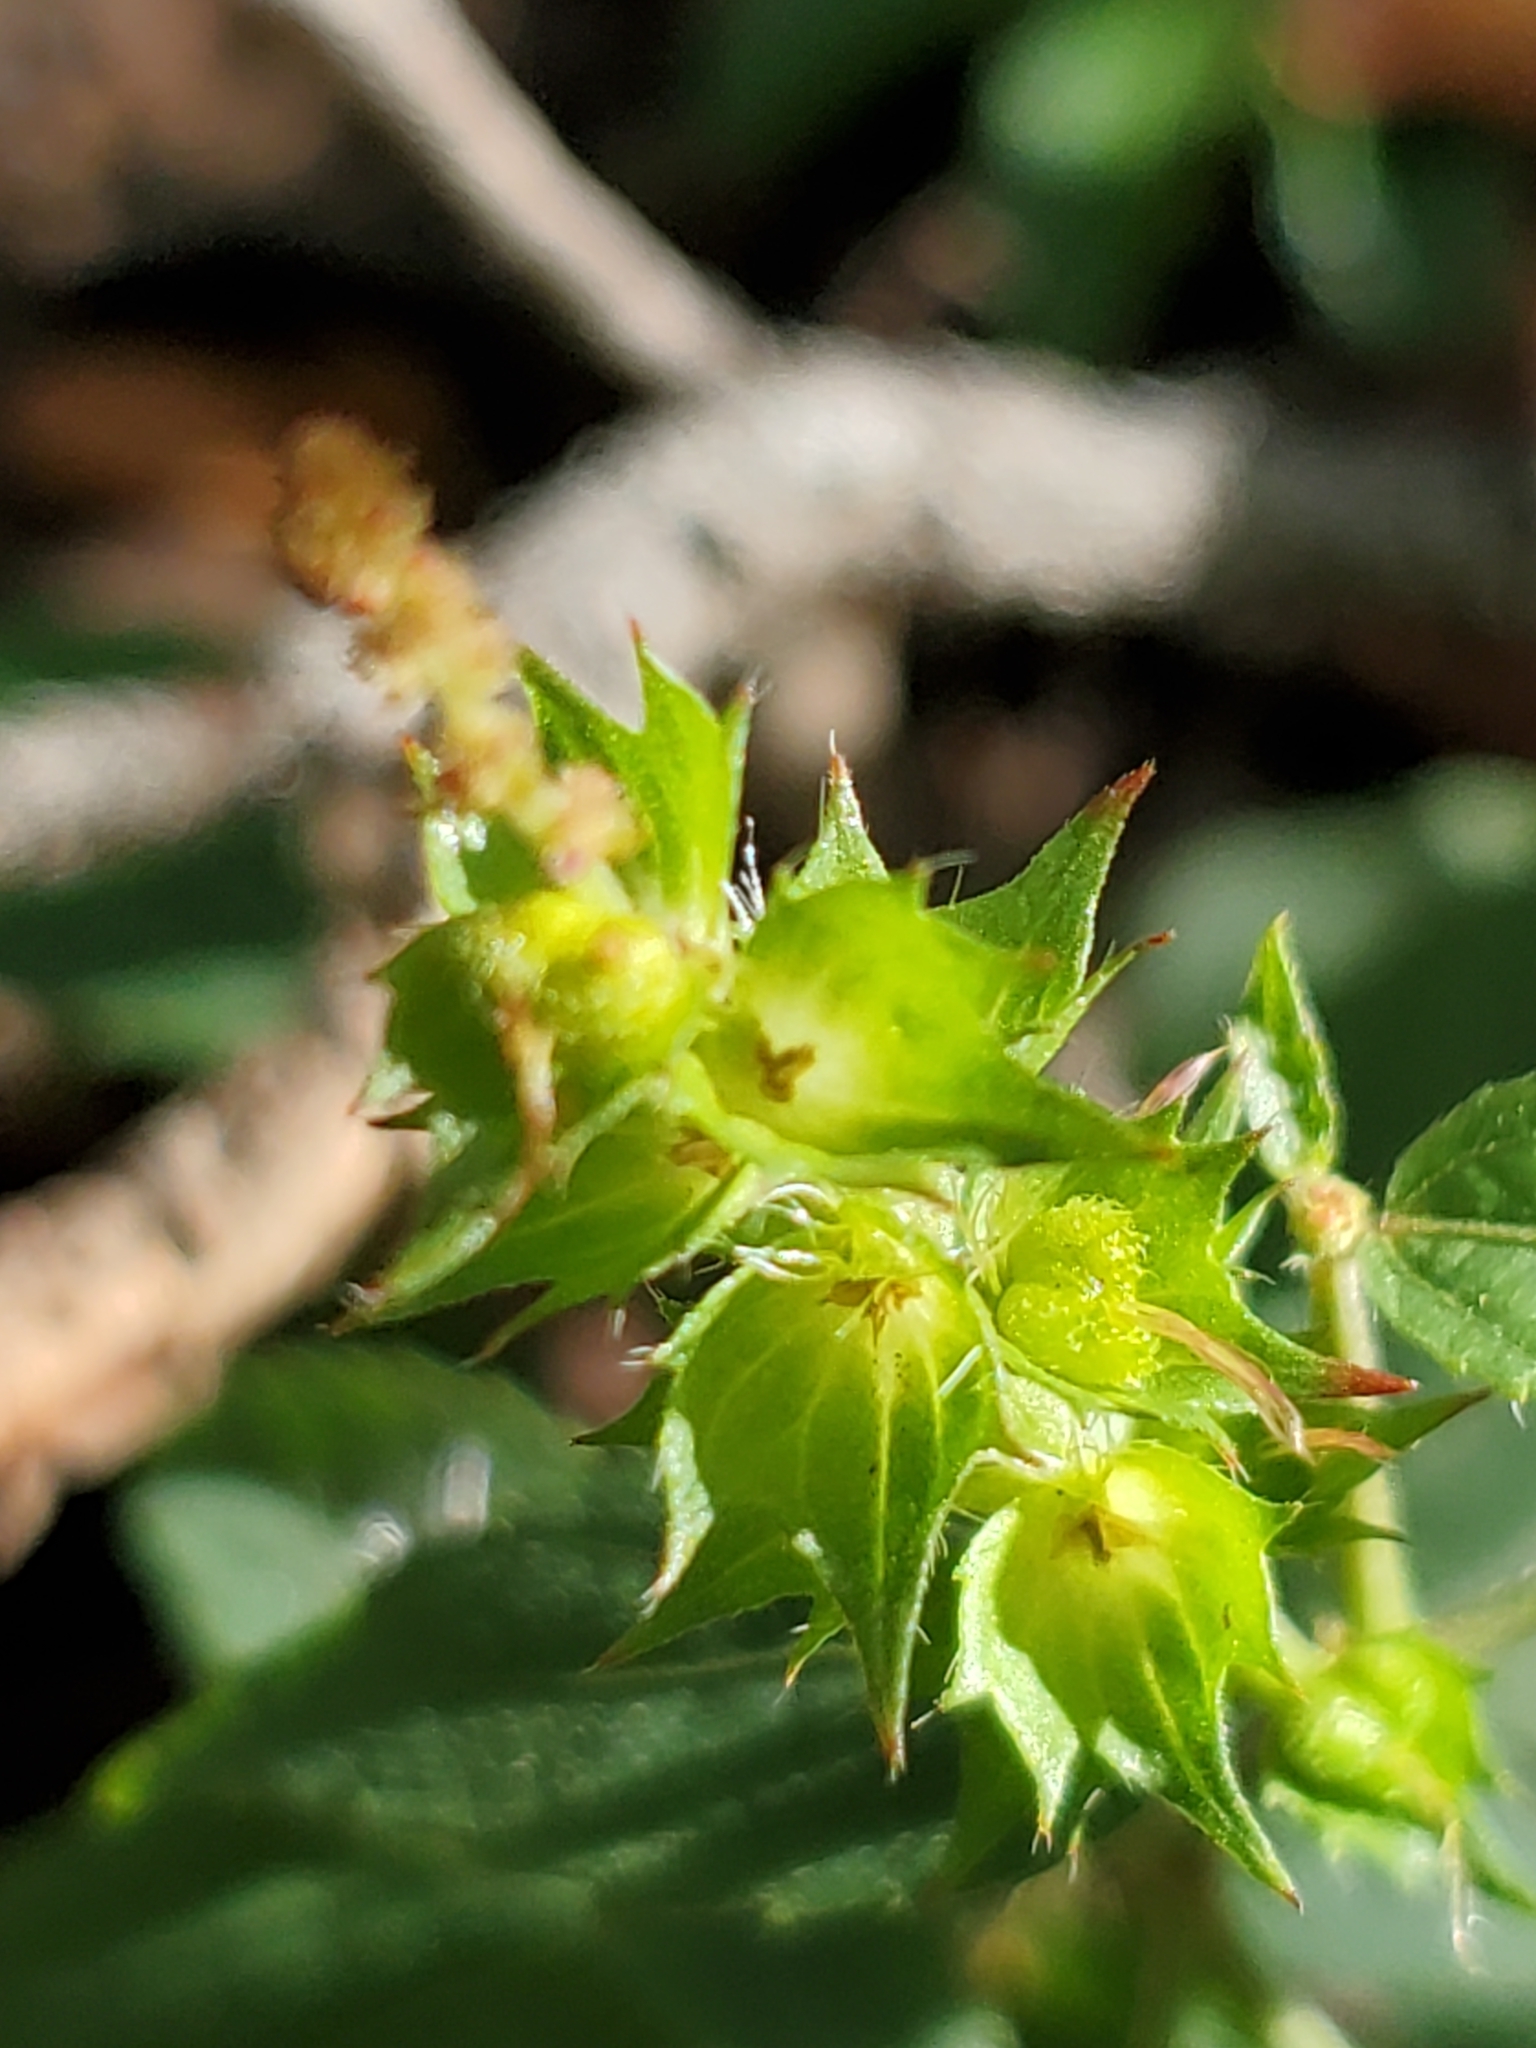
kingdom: Plantae
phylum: Tracheophyta
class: Magnoliopsida
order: Malpighiales
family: Euphorbiaceae
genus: Acalypha
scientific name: Acalypha phleoides
